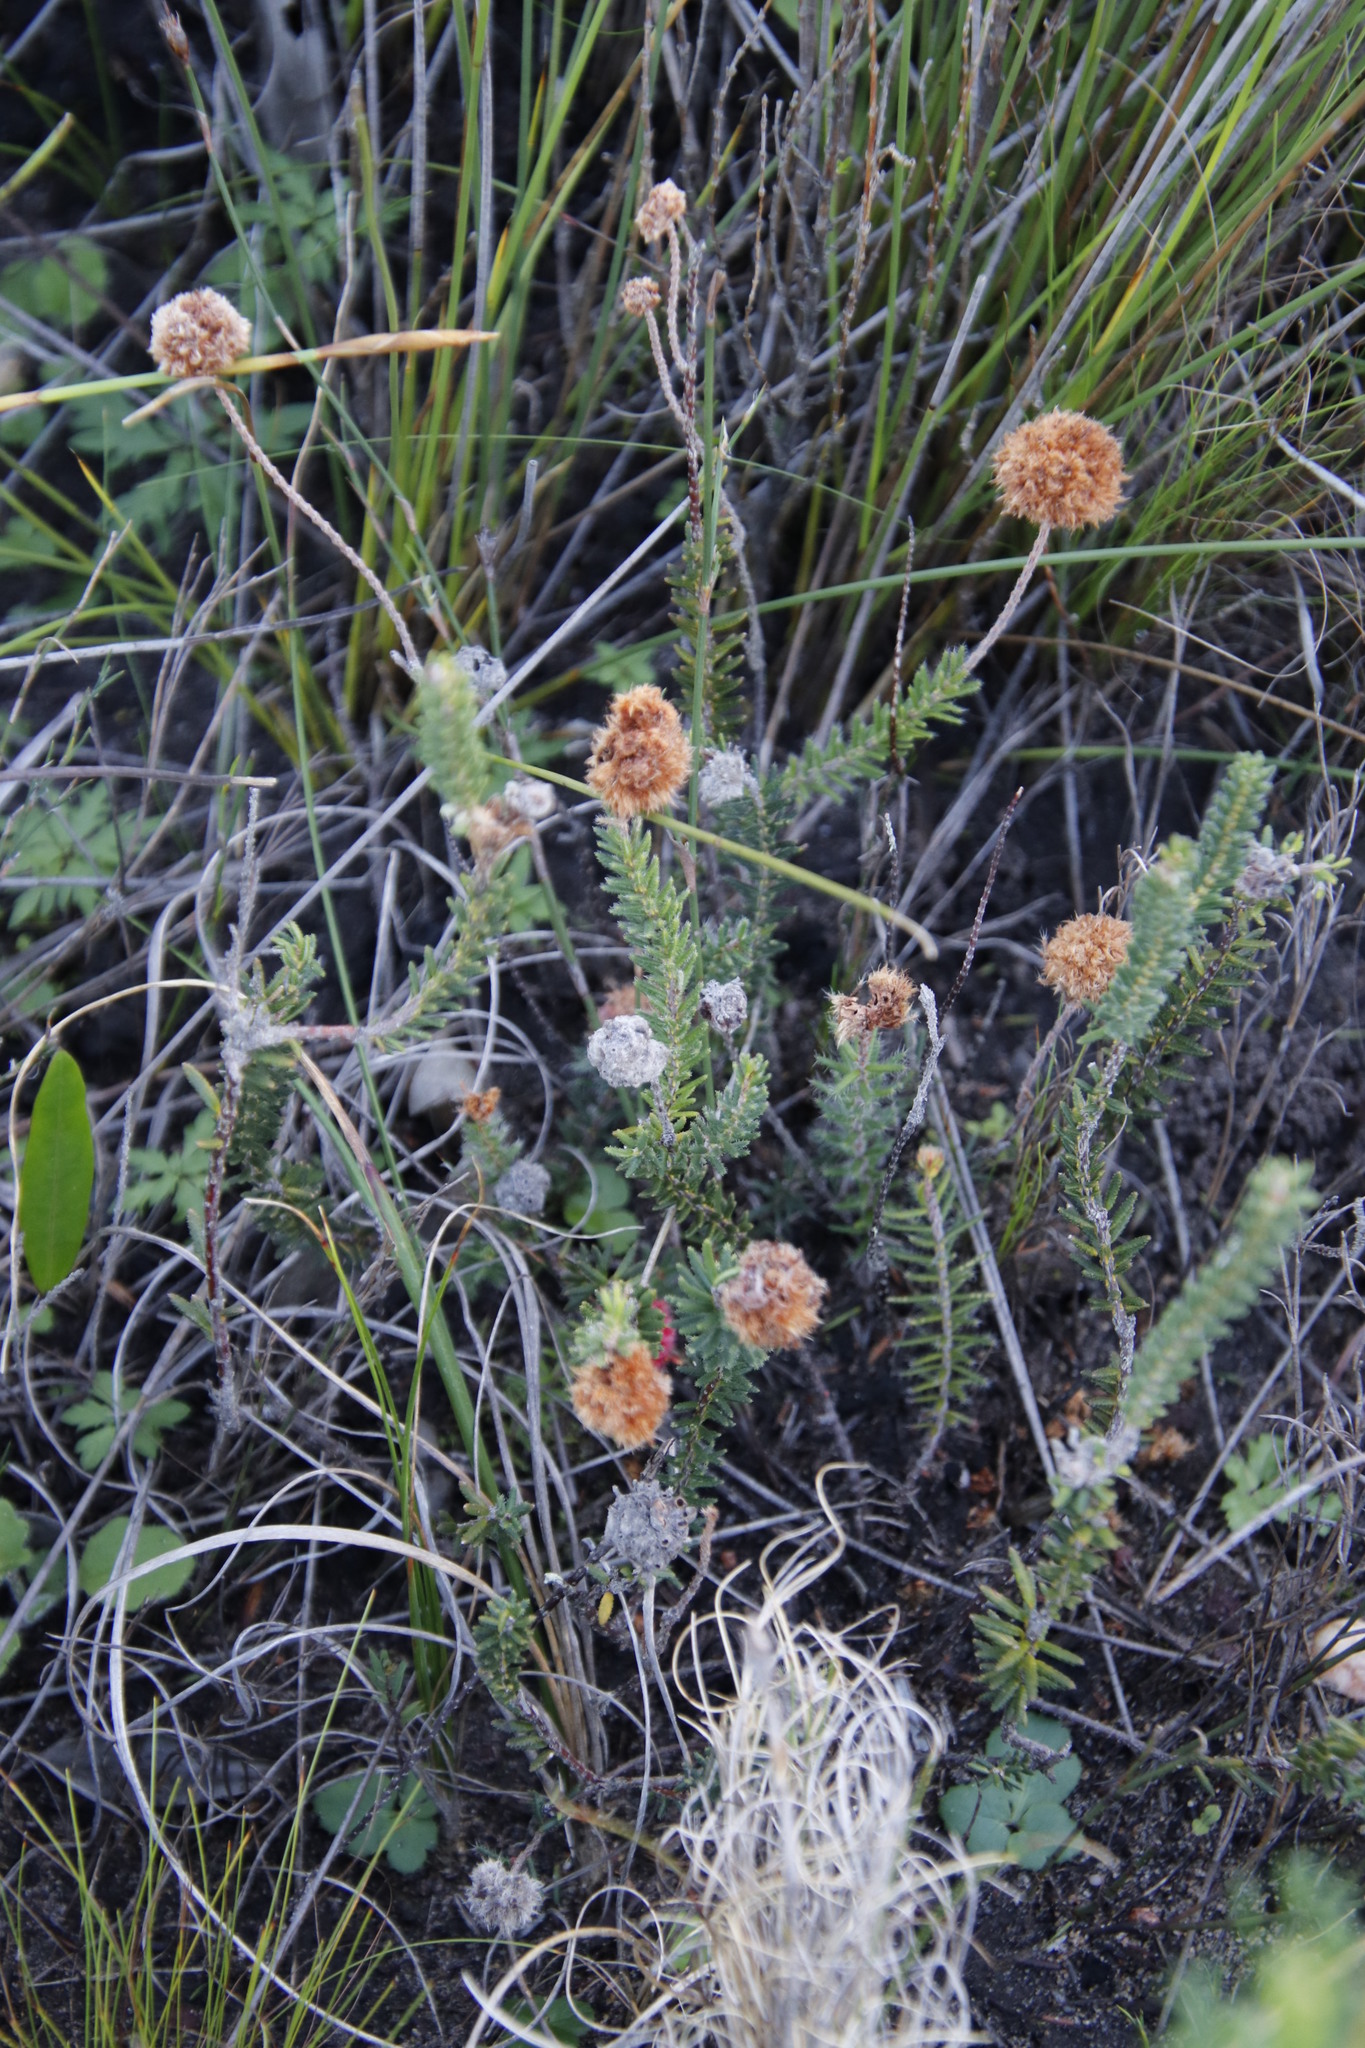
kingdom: Plantae
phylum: Tracheophyta
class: Magnoliopsida
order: Ericales
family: Ericaceae
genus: Erica
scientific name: Erica cerinthoides
